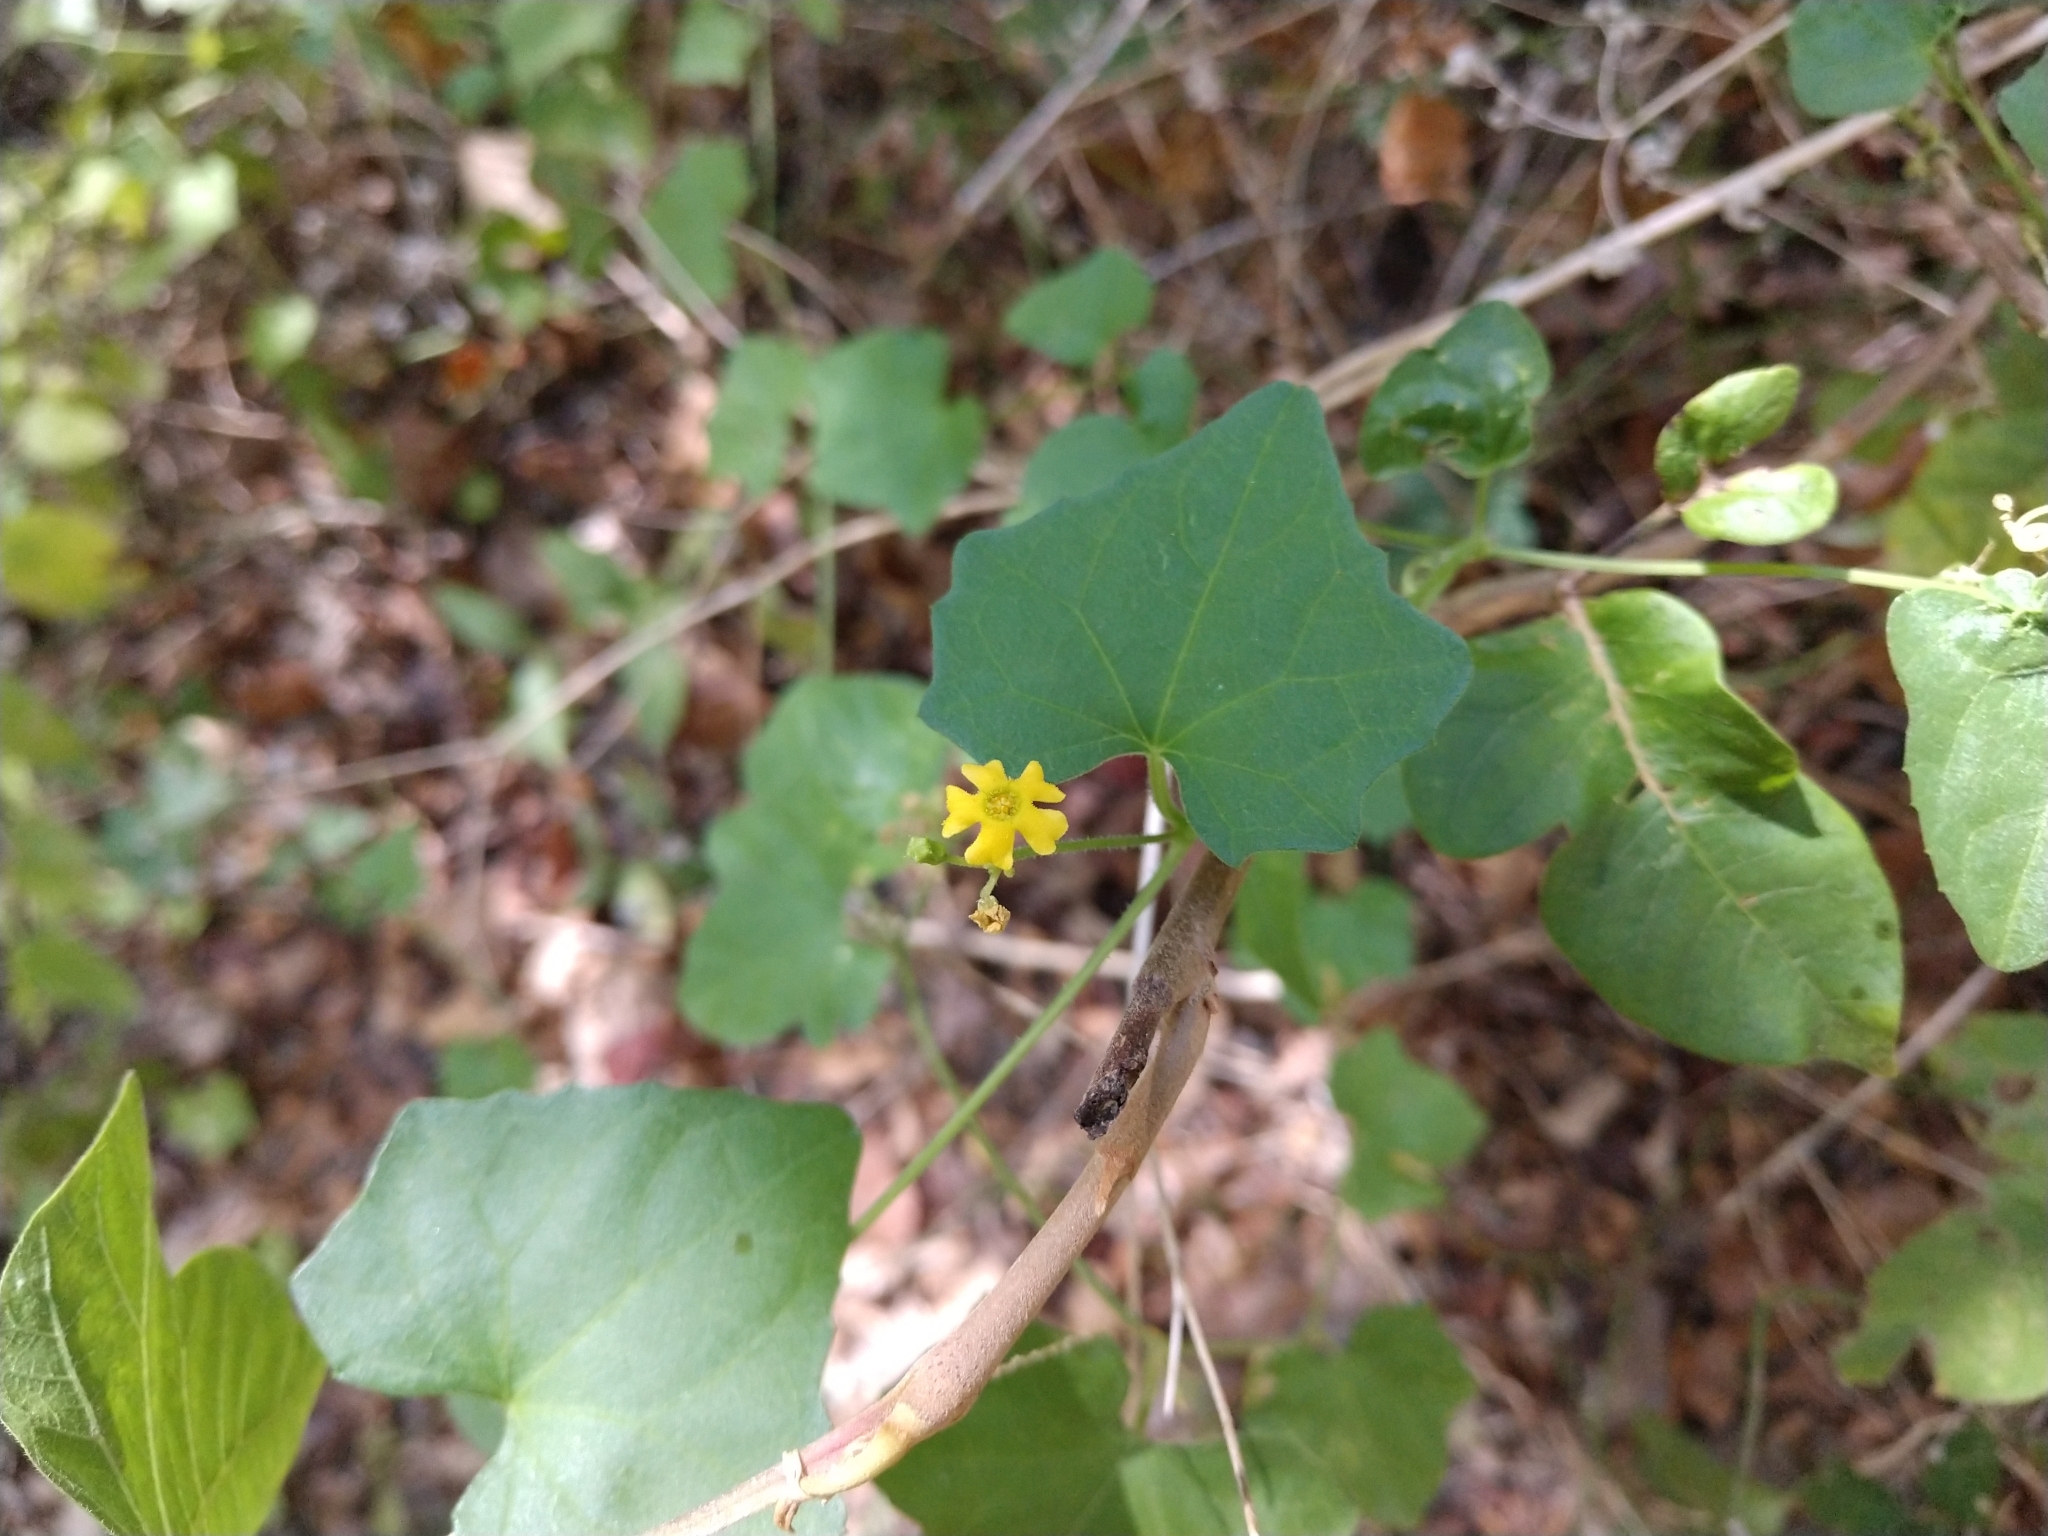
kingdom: Plantae
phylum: Tracheophyta
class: Magnoliopsida
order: Cucurbitales
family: Cucurbitaceae
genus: Melothria
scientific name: Melothria pendula
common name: Creeping-cucumber
